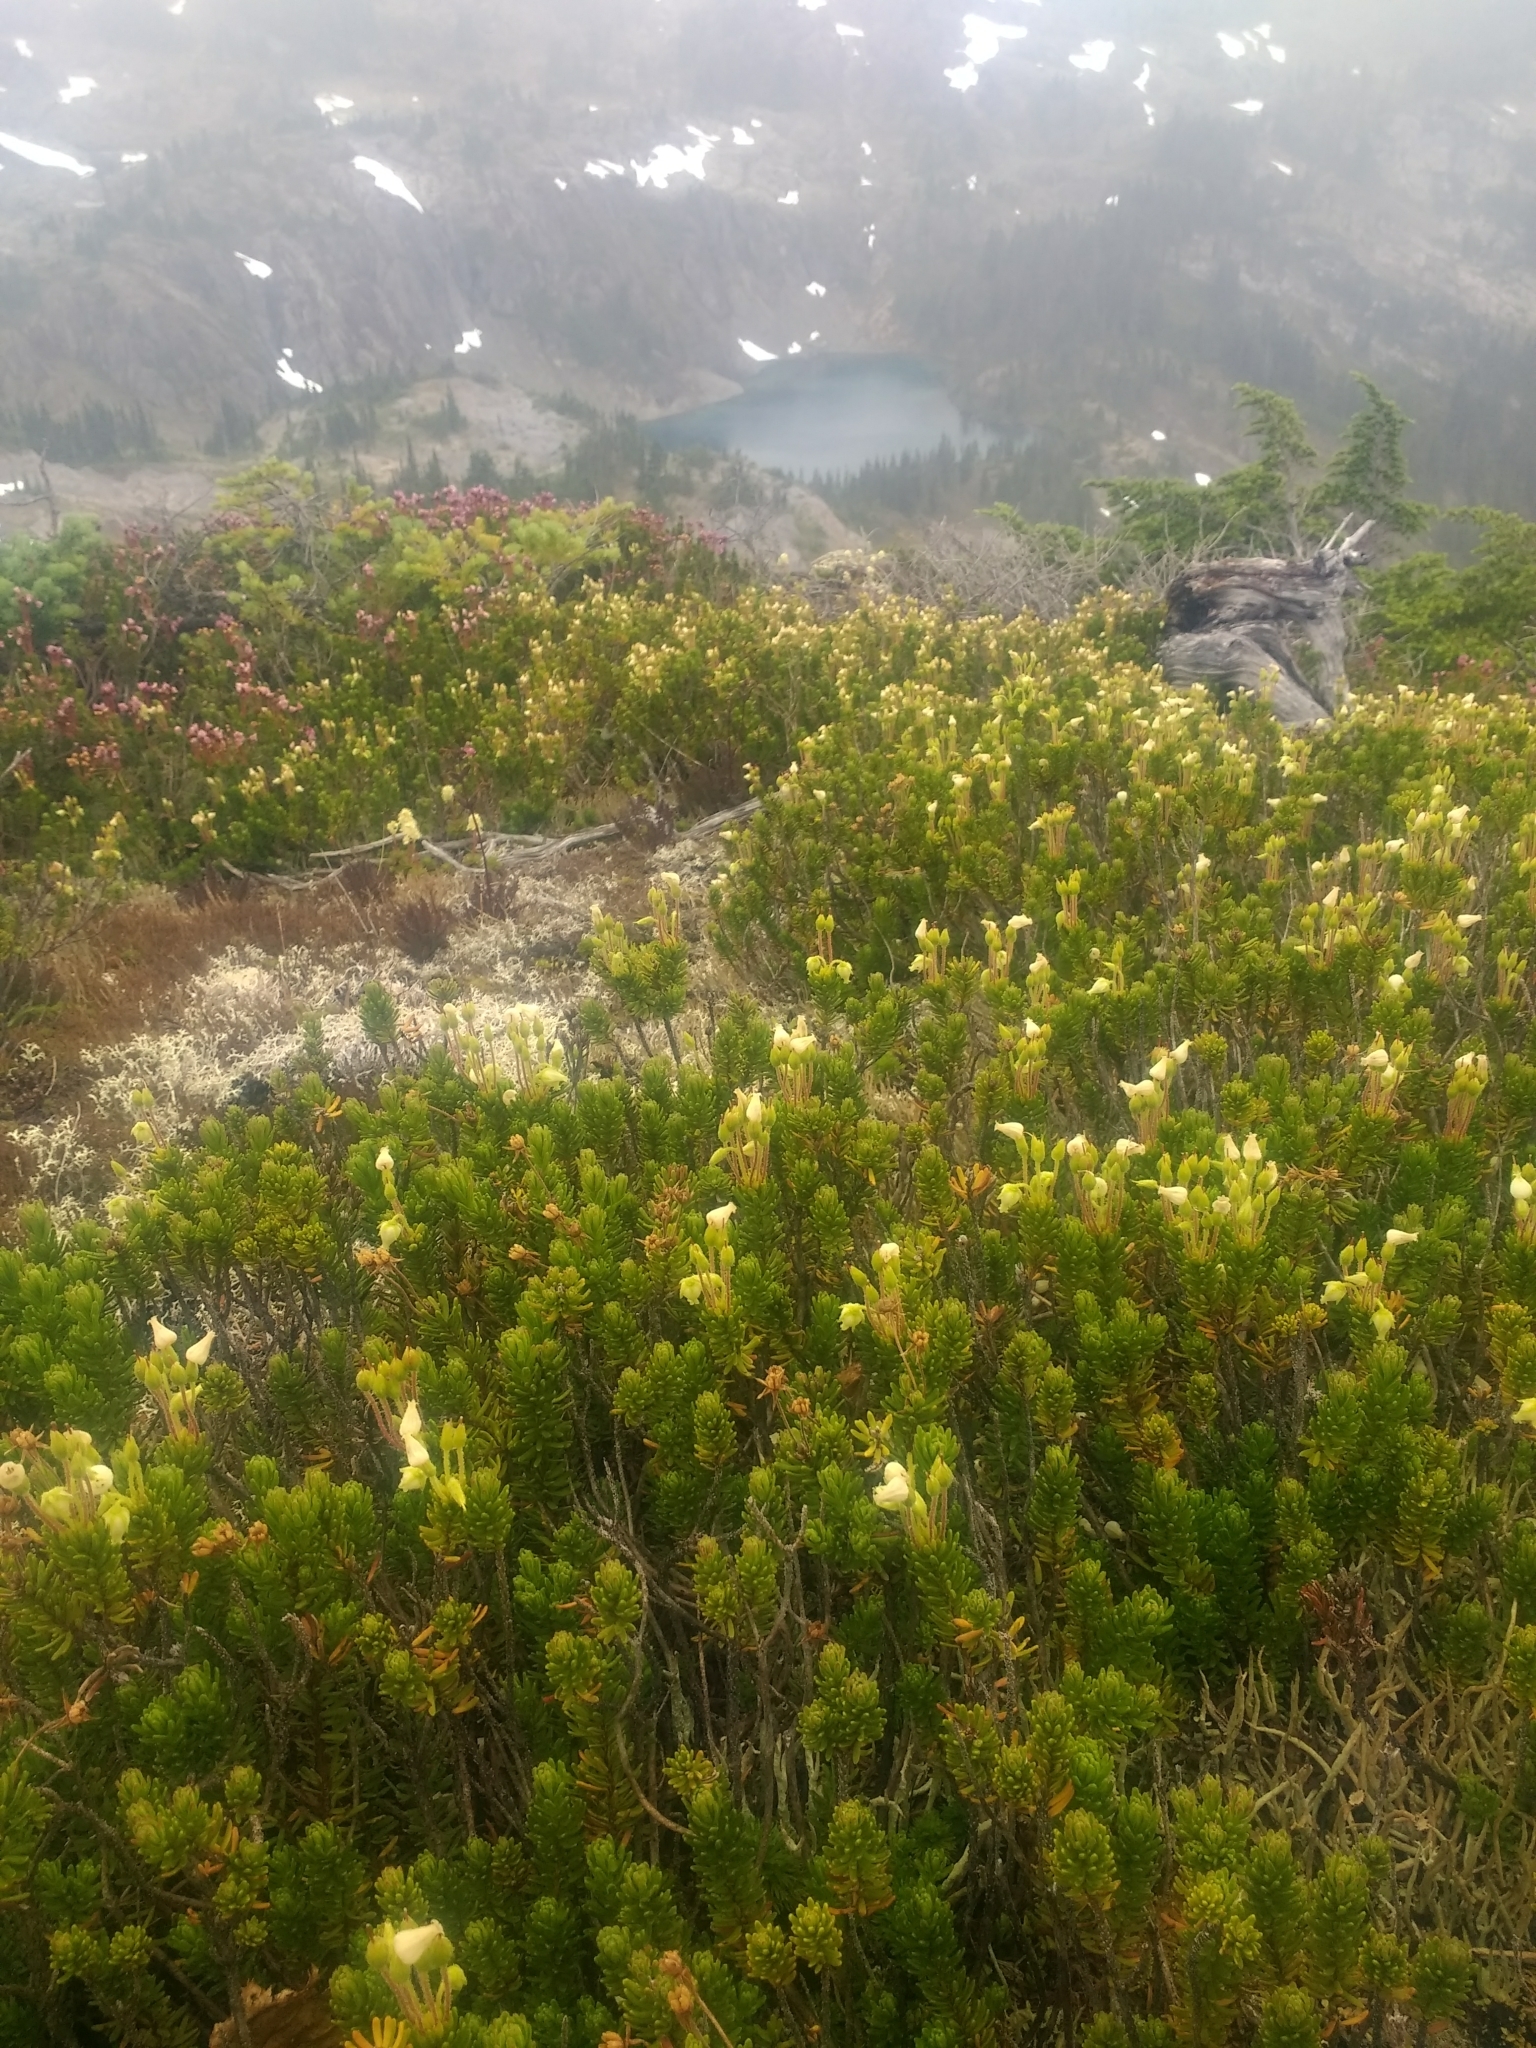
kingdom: Plantae
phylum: Tracheophyta
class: Magnoliopsida
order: Ericales
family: Ericaceae
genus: Phyllodoce
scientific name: Phyllodoce glanduliflora
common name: Cream mountain heather
